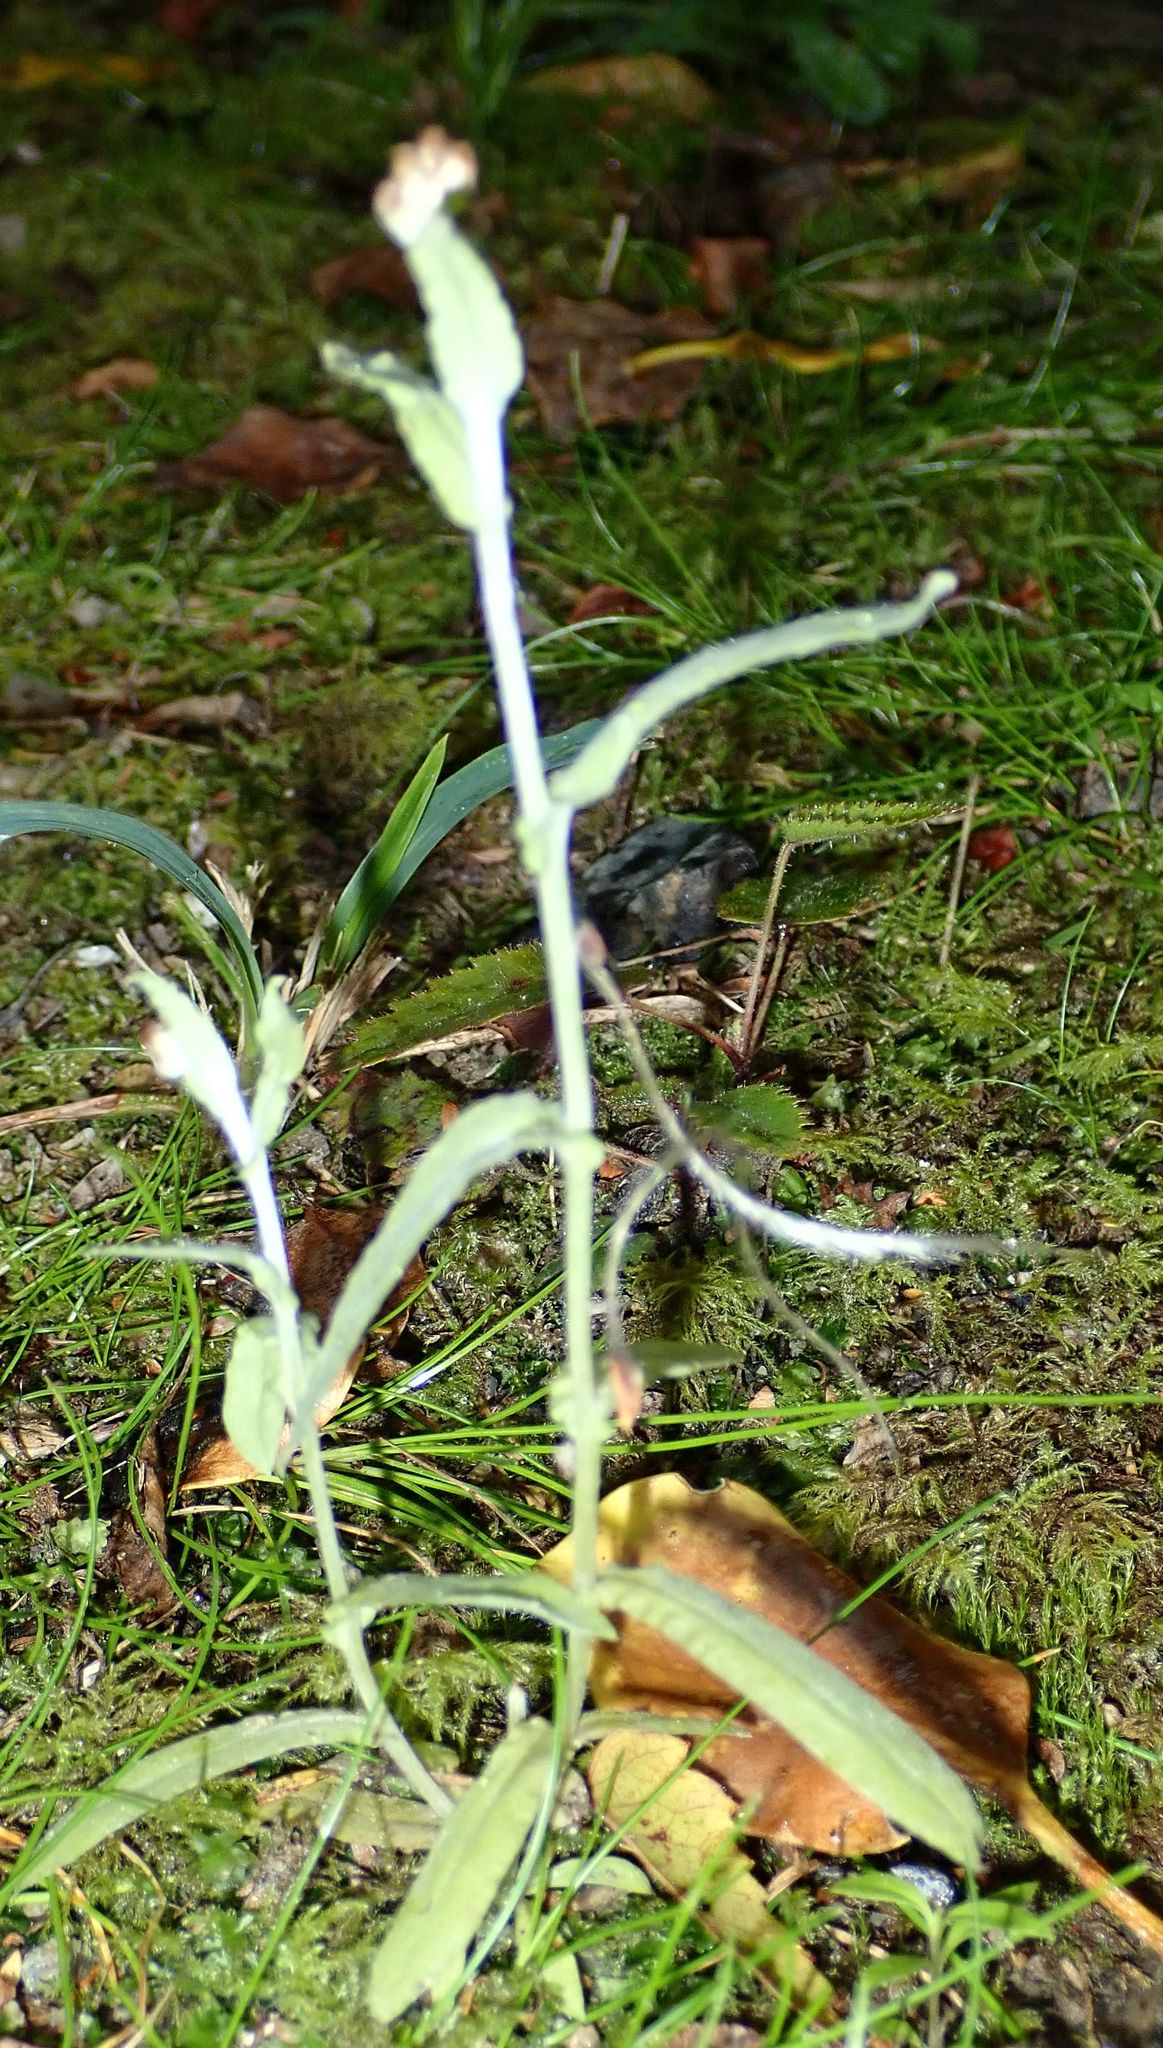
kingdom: Plantae
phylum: Tracheophyta
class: Magnoliopsida
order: Asterales
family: Asteraceae
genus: Helichrysum
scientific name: Helichrysum luteoalbum
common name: Daisy
